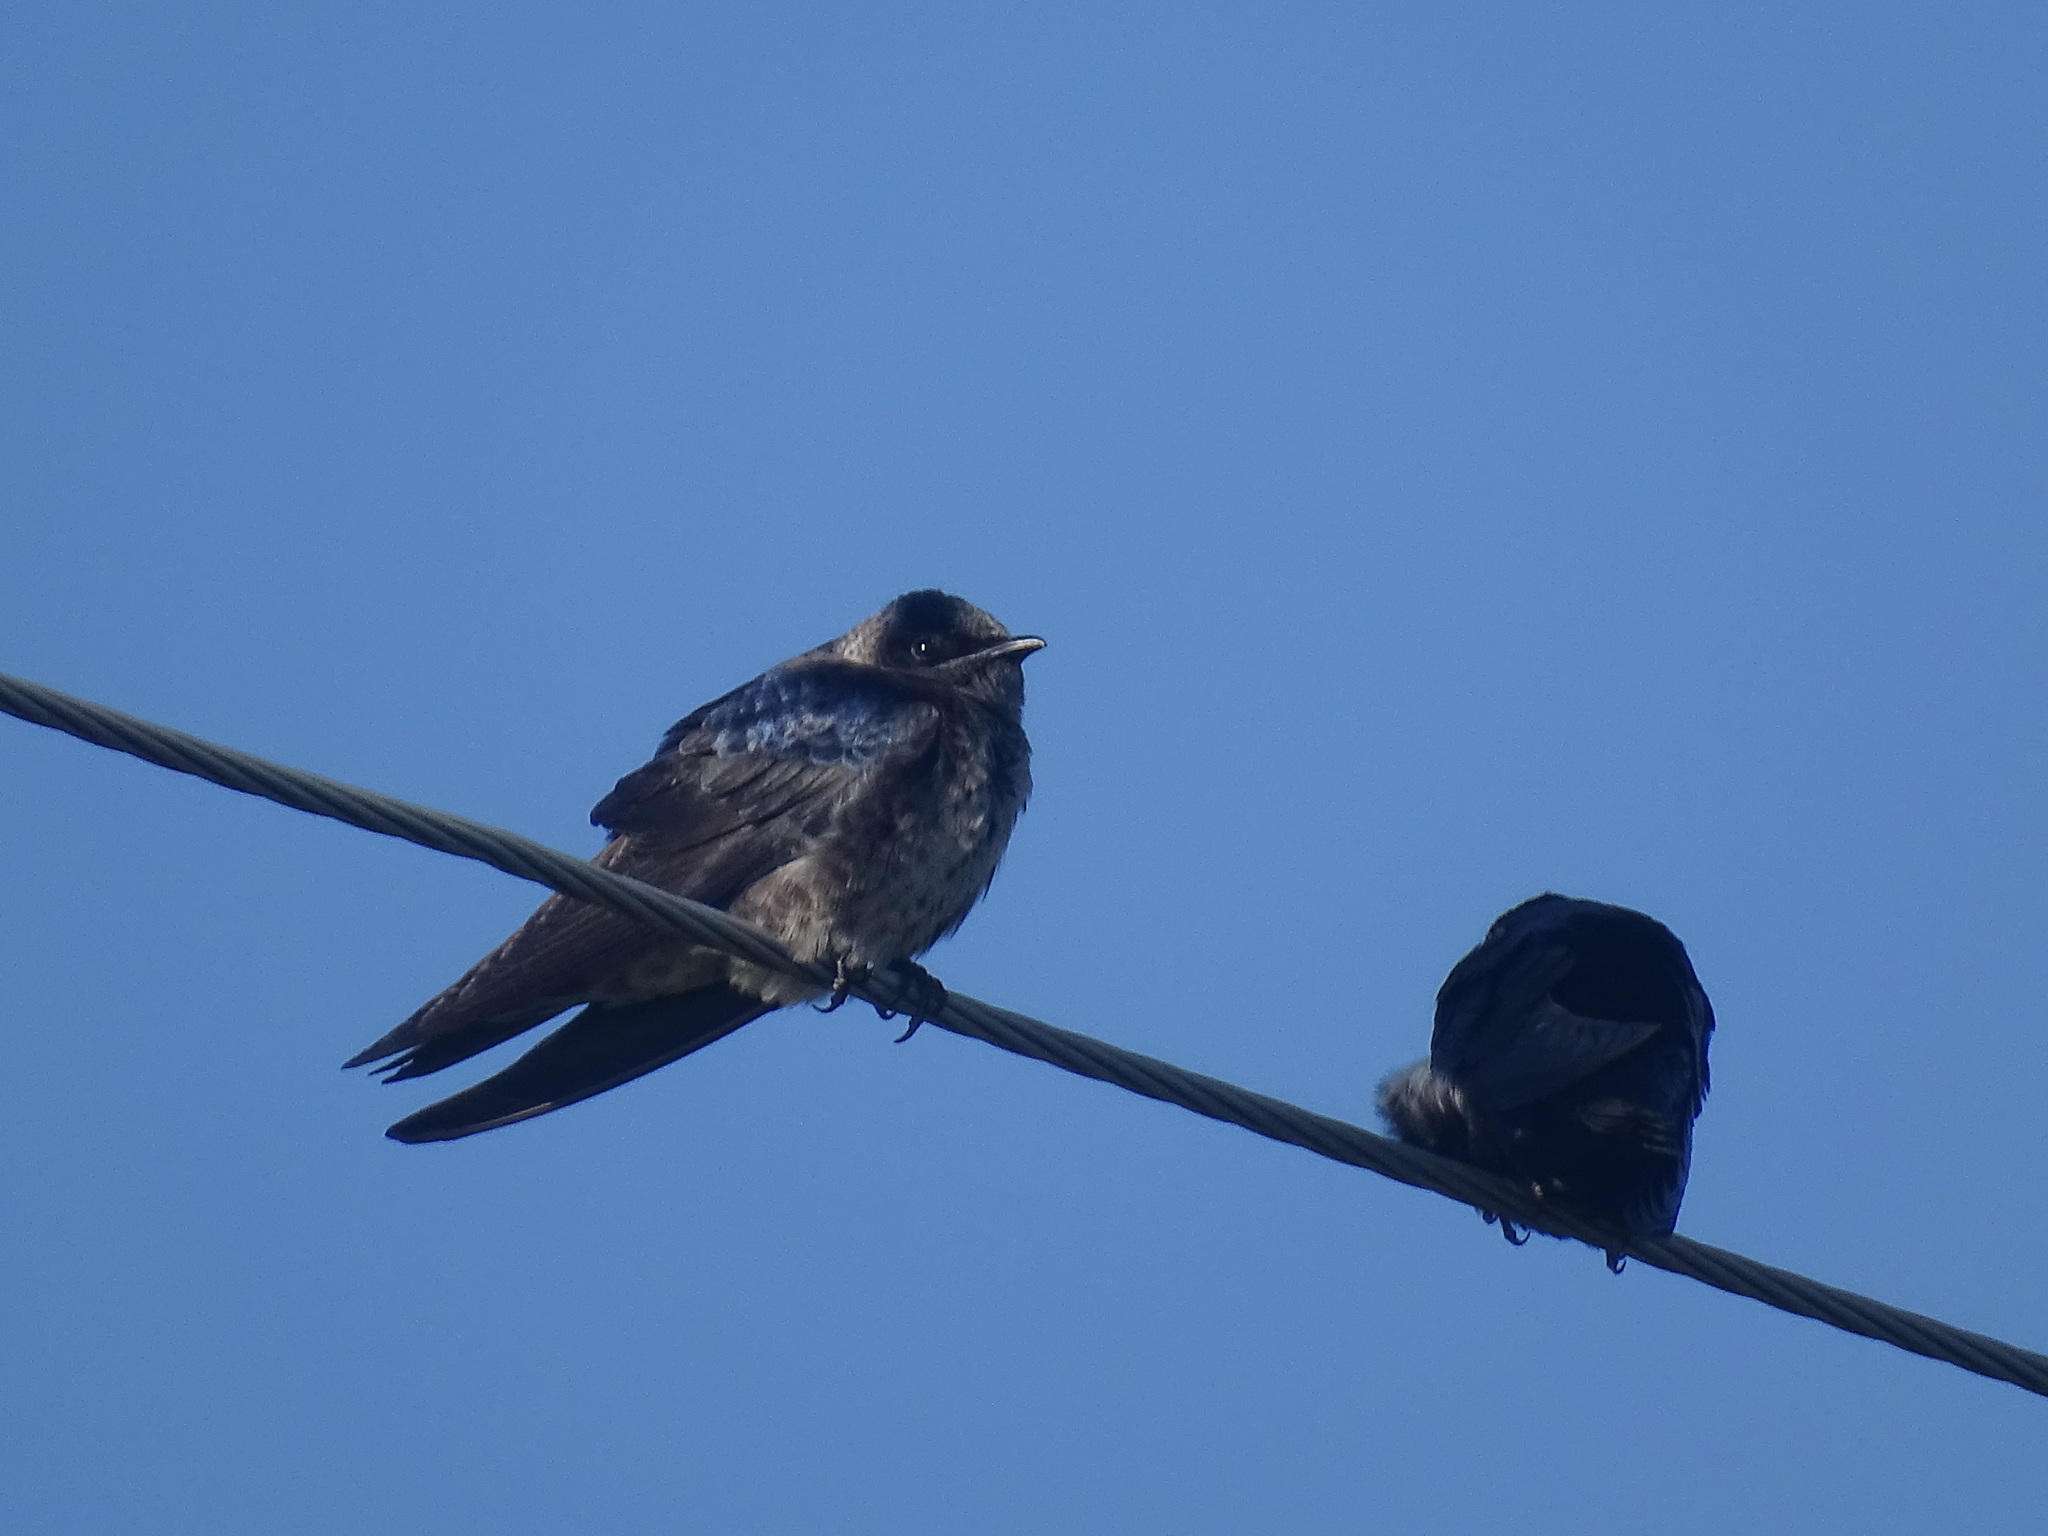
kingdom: Animalia
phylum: Chordata
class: Aves
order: Passeriformes
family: Hirundinidae
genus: Progne
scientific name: Progne subis
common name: Purple martin
